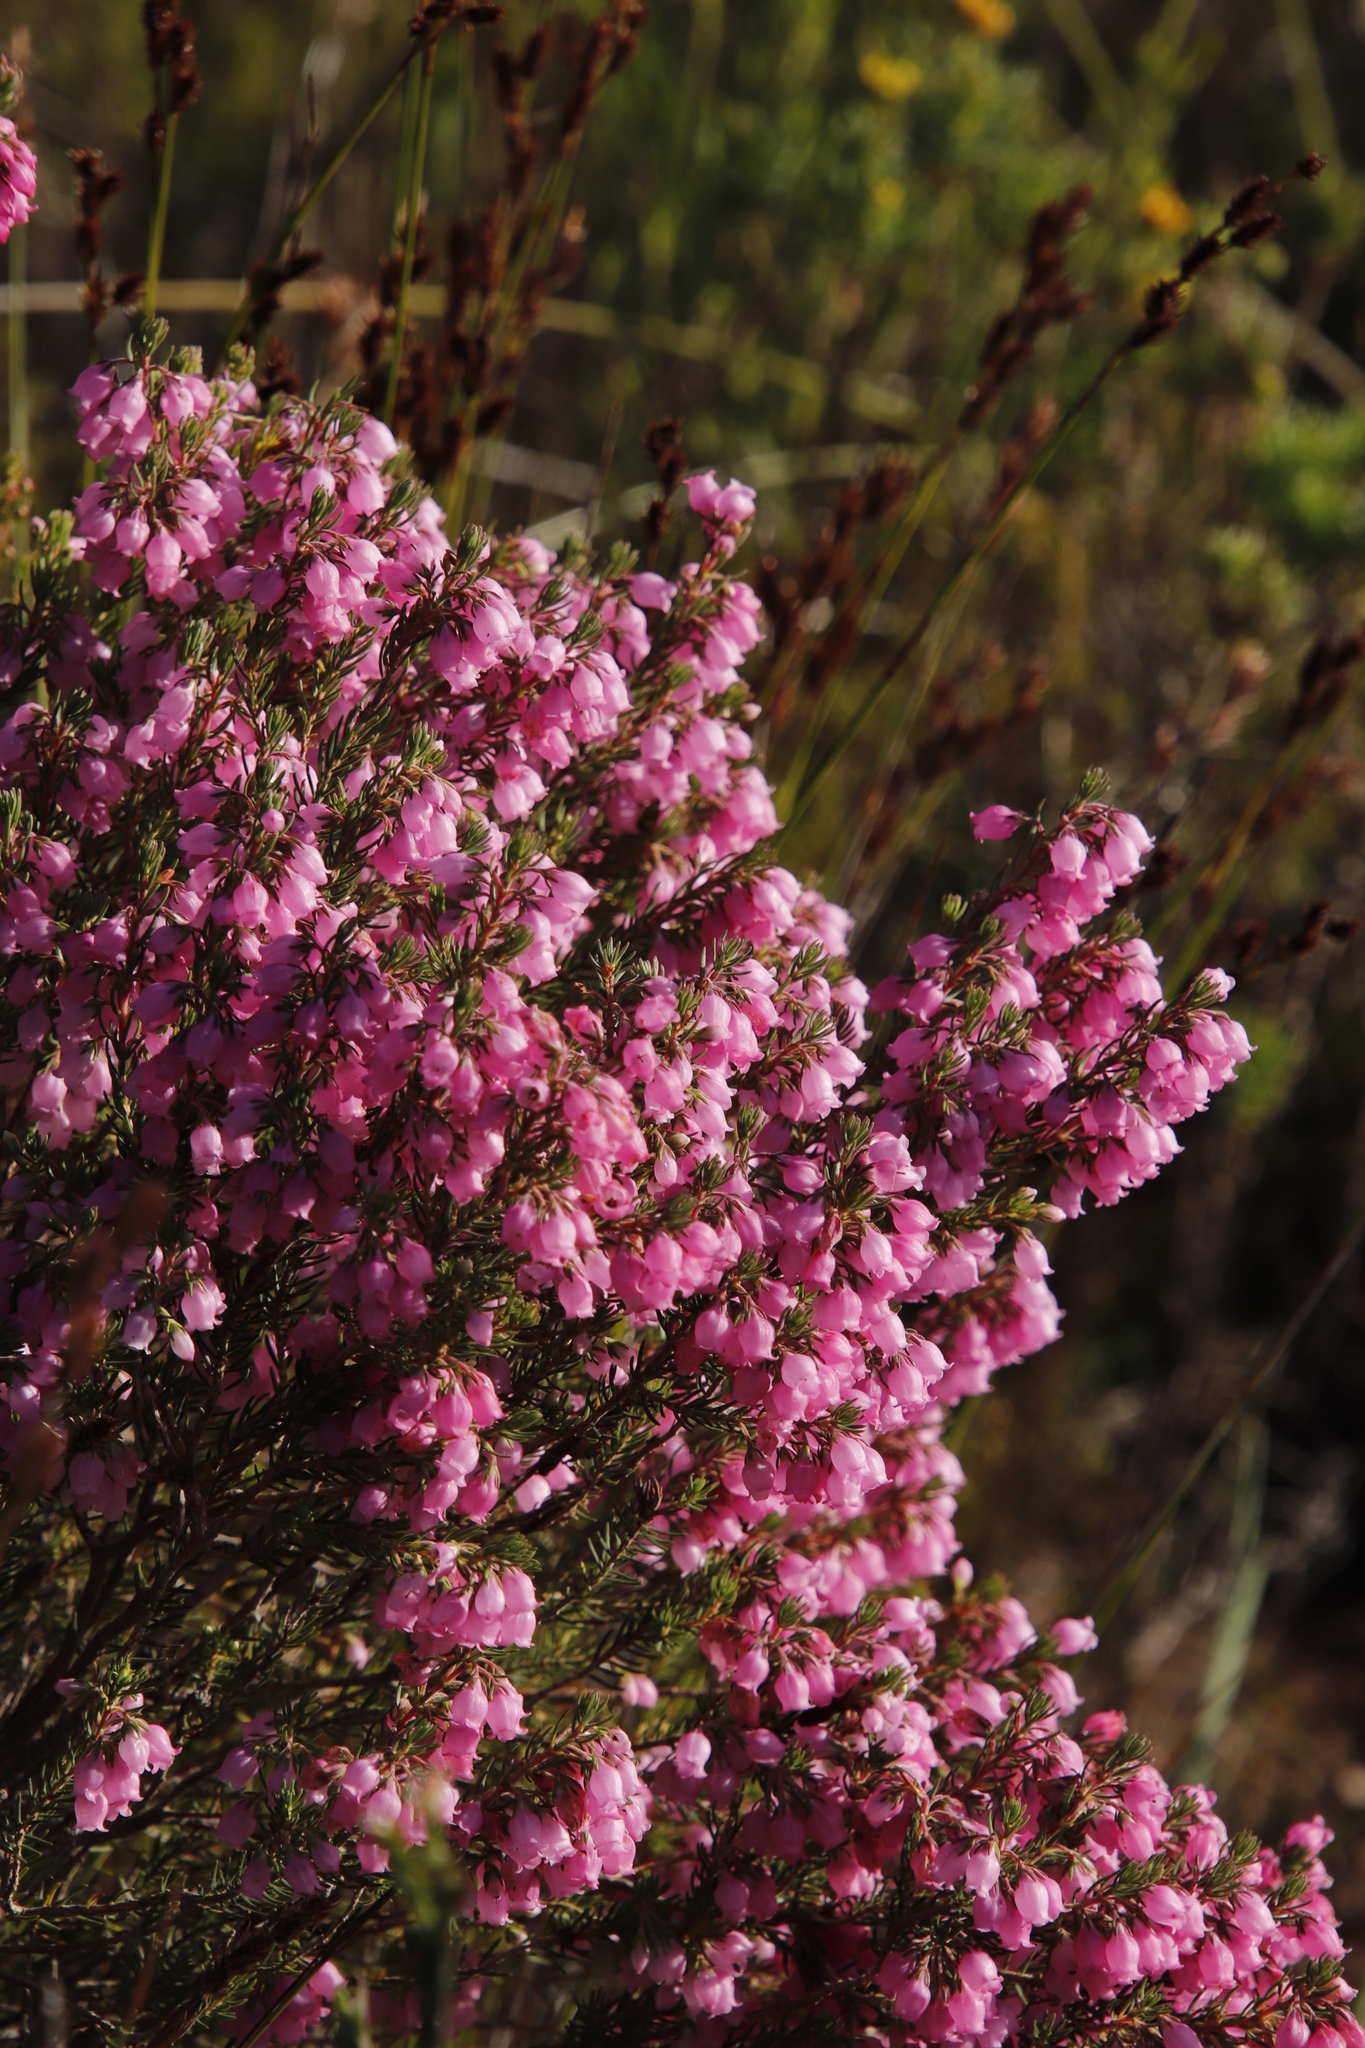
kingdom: Plantae
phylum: Tracheophyta
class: Magnoliopsida
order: Ericales
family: Ericaceae
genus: Erica
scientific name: Erica viscaria
